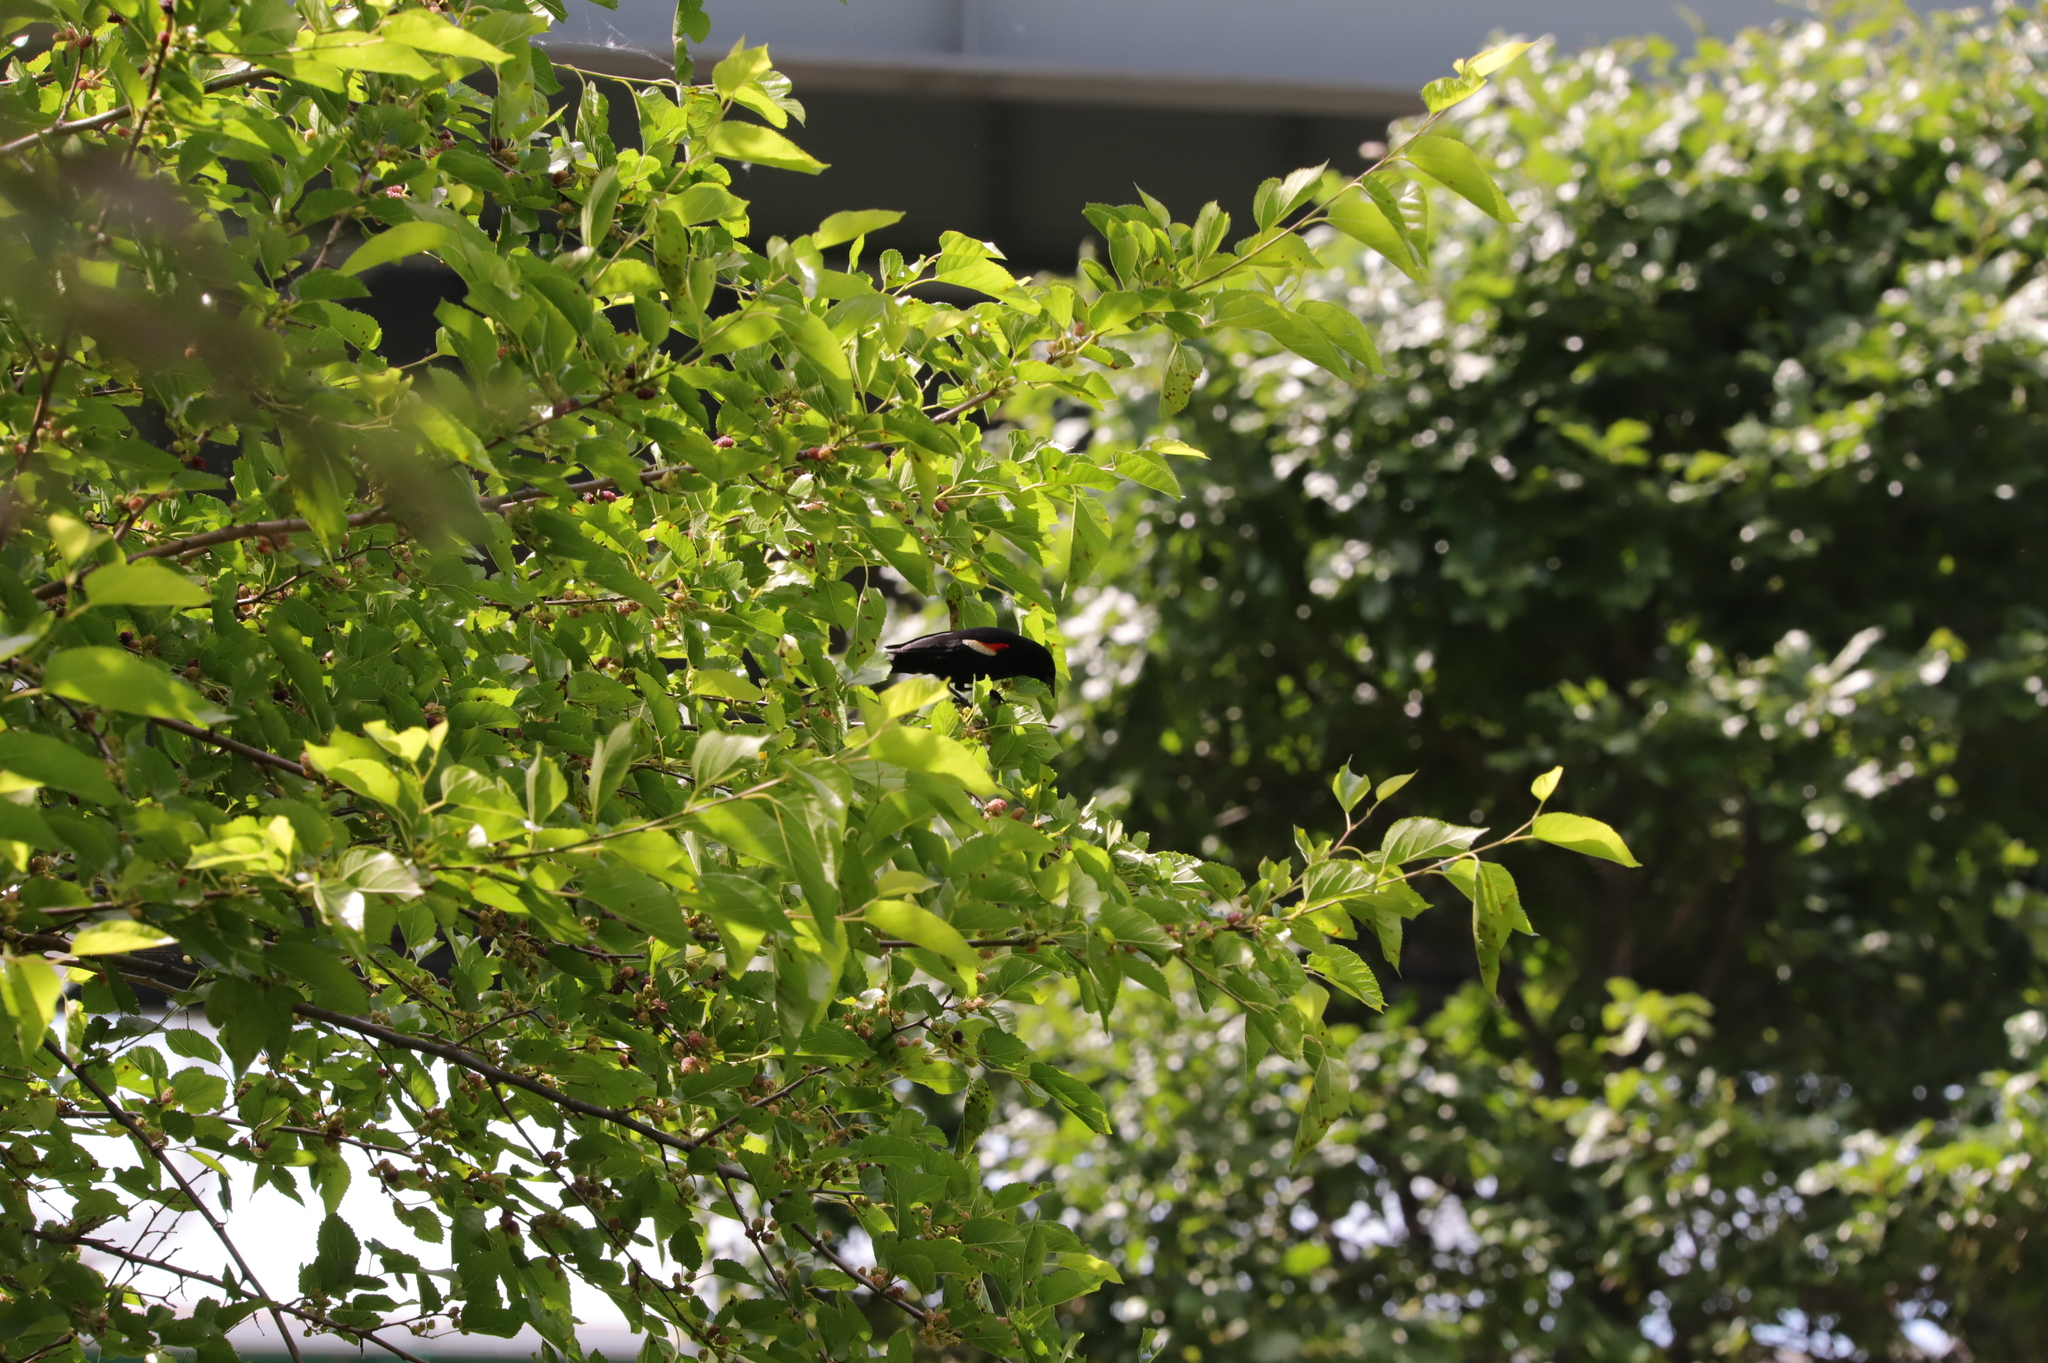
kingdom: Animalia
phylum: Chordata
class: Aves
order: Passeriformes
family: Icteridae
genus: Agelaius
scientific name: Agelaius phoeniceus
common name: Red-winged blackbird
